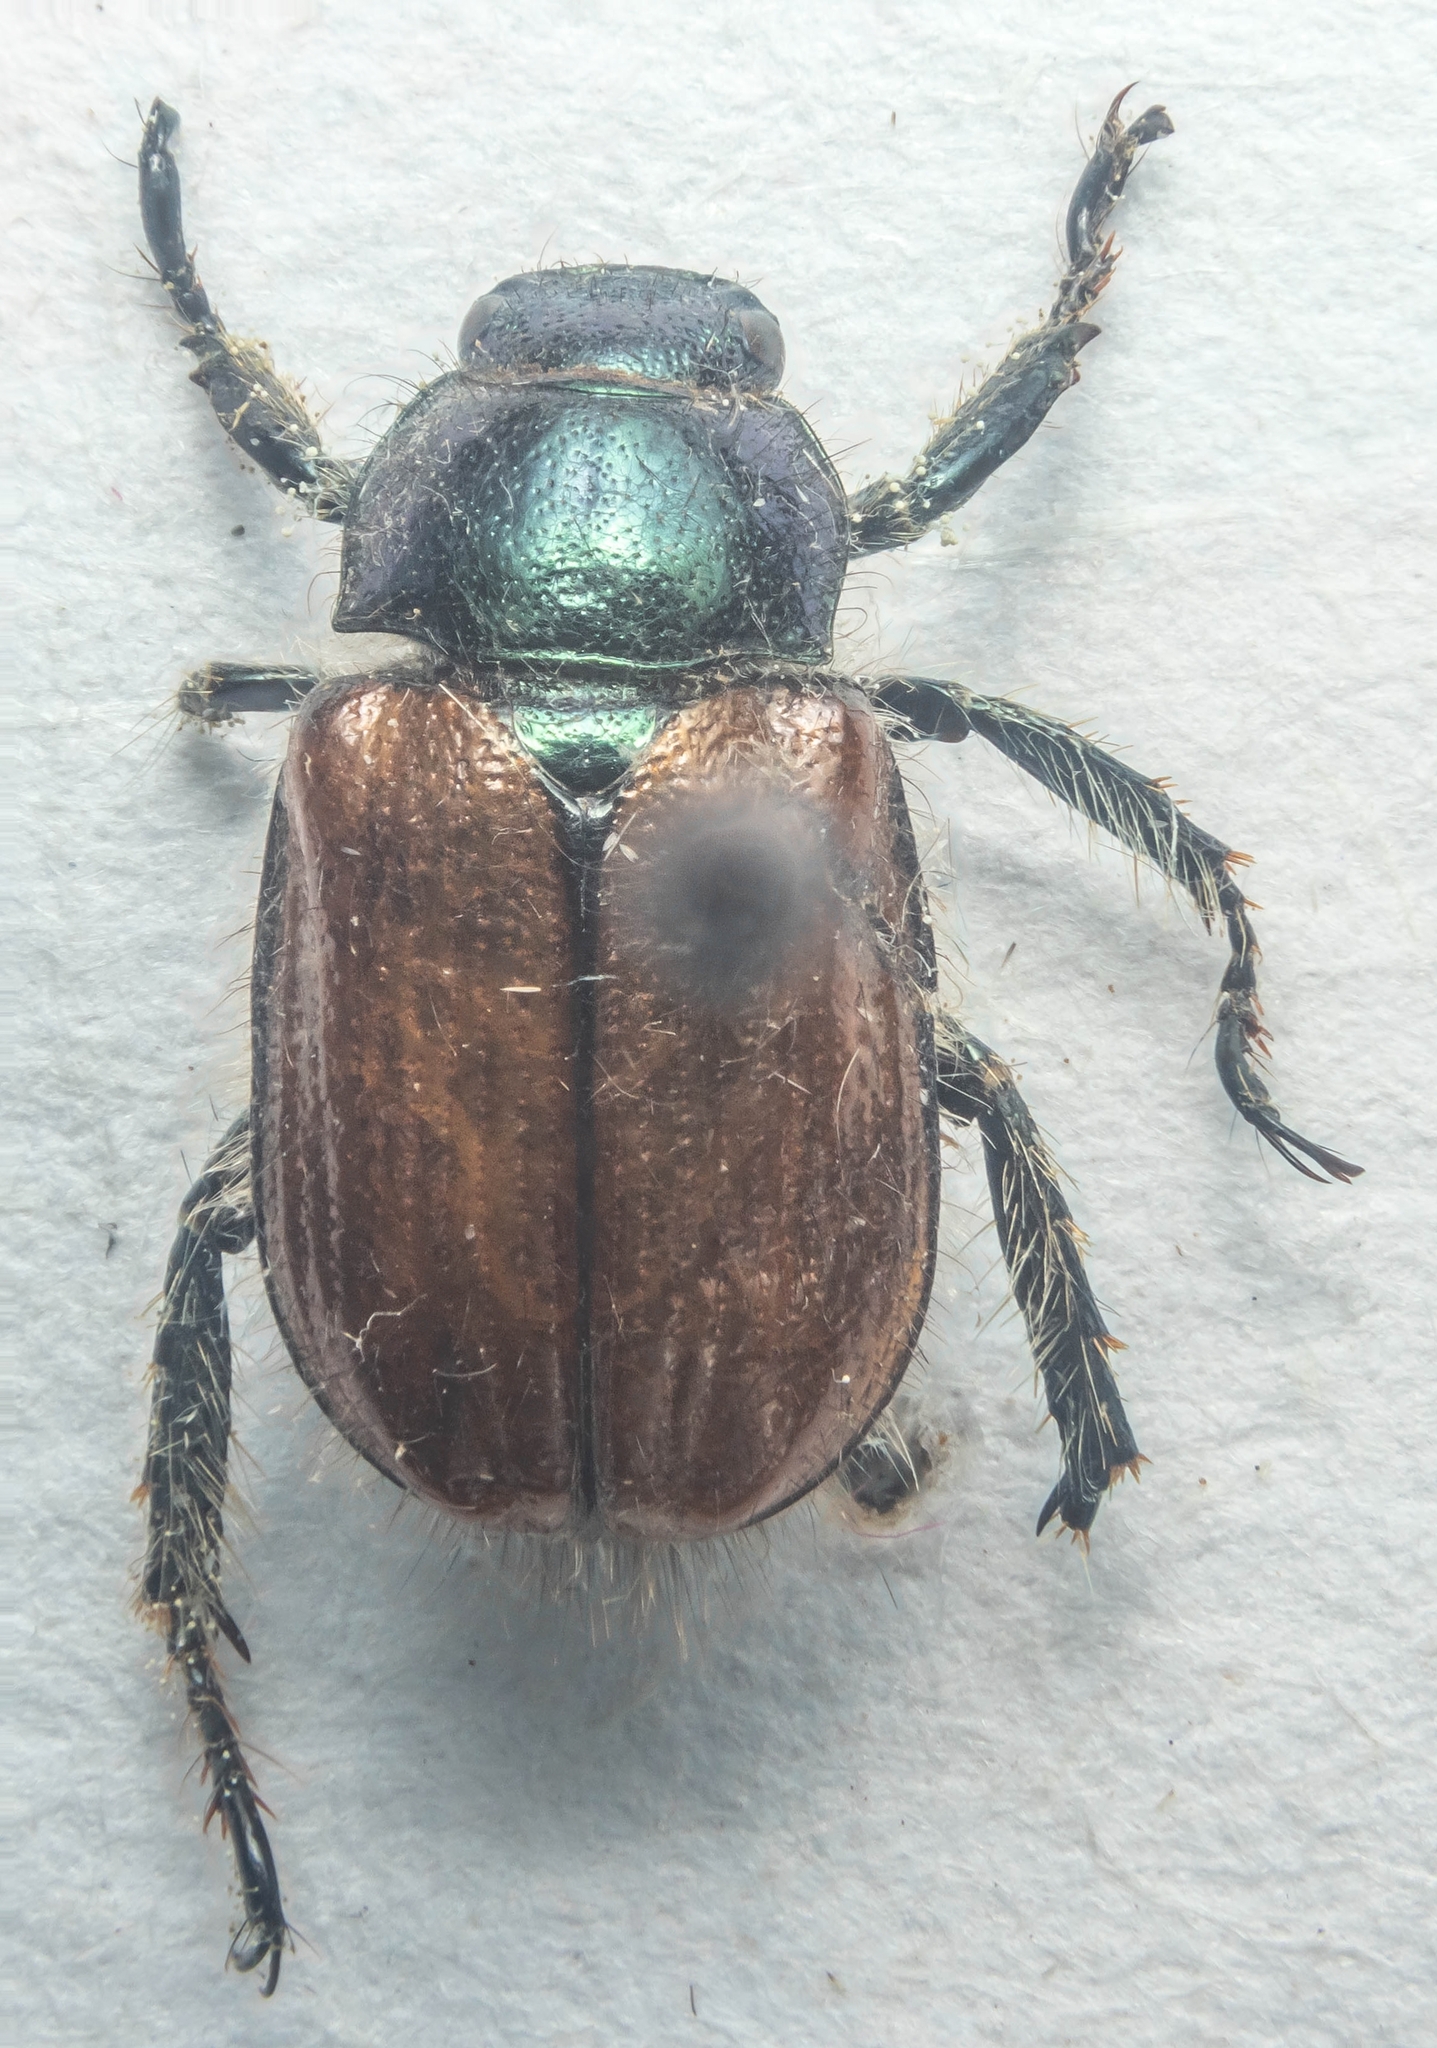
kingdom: Animalia
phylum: Arthropoda
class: Insecta
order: Coleoptera
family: Scarabaeidae
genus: Phyllopertha
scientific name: Phyllopertha horticola
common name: Garden chafer
